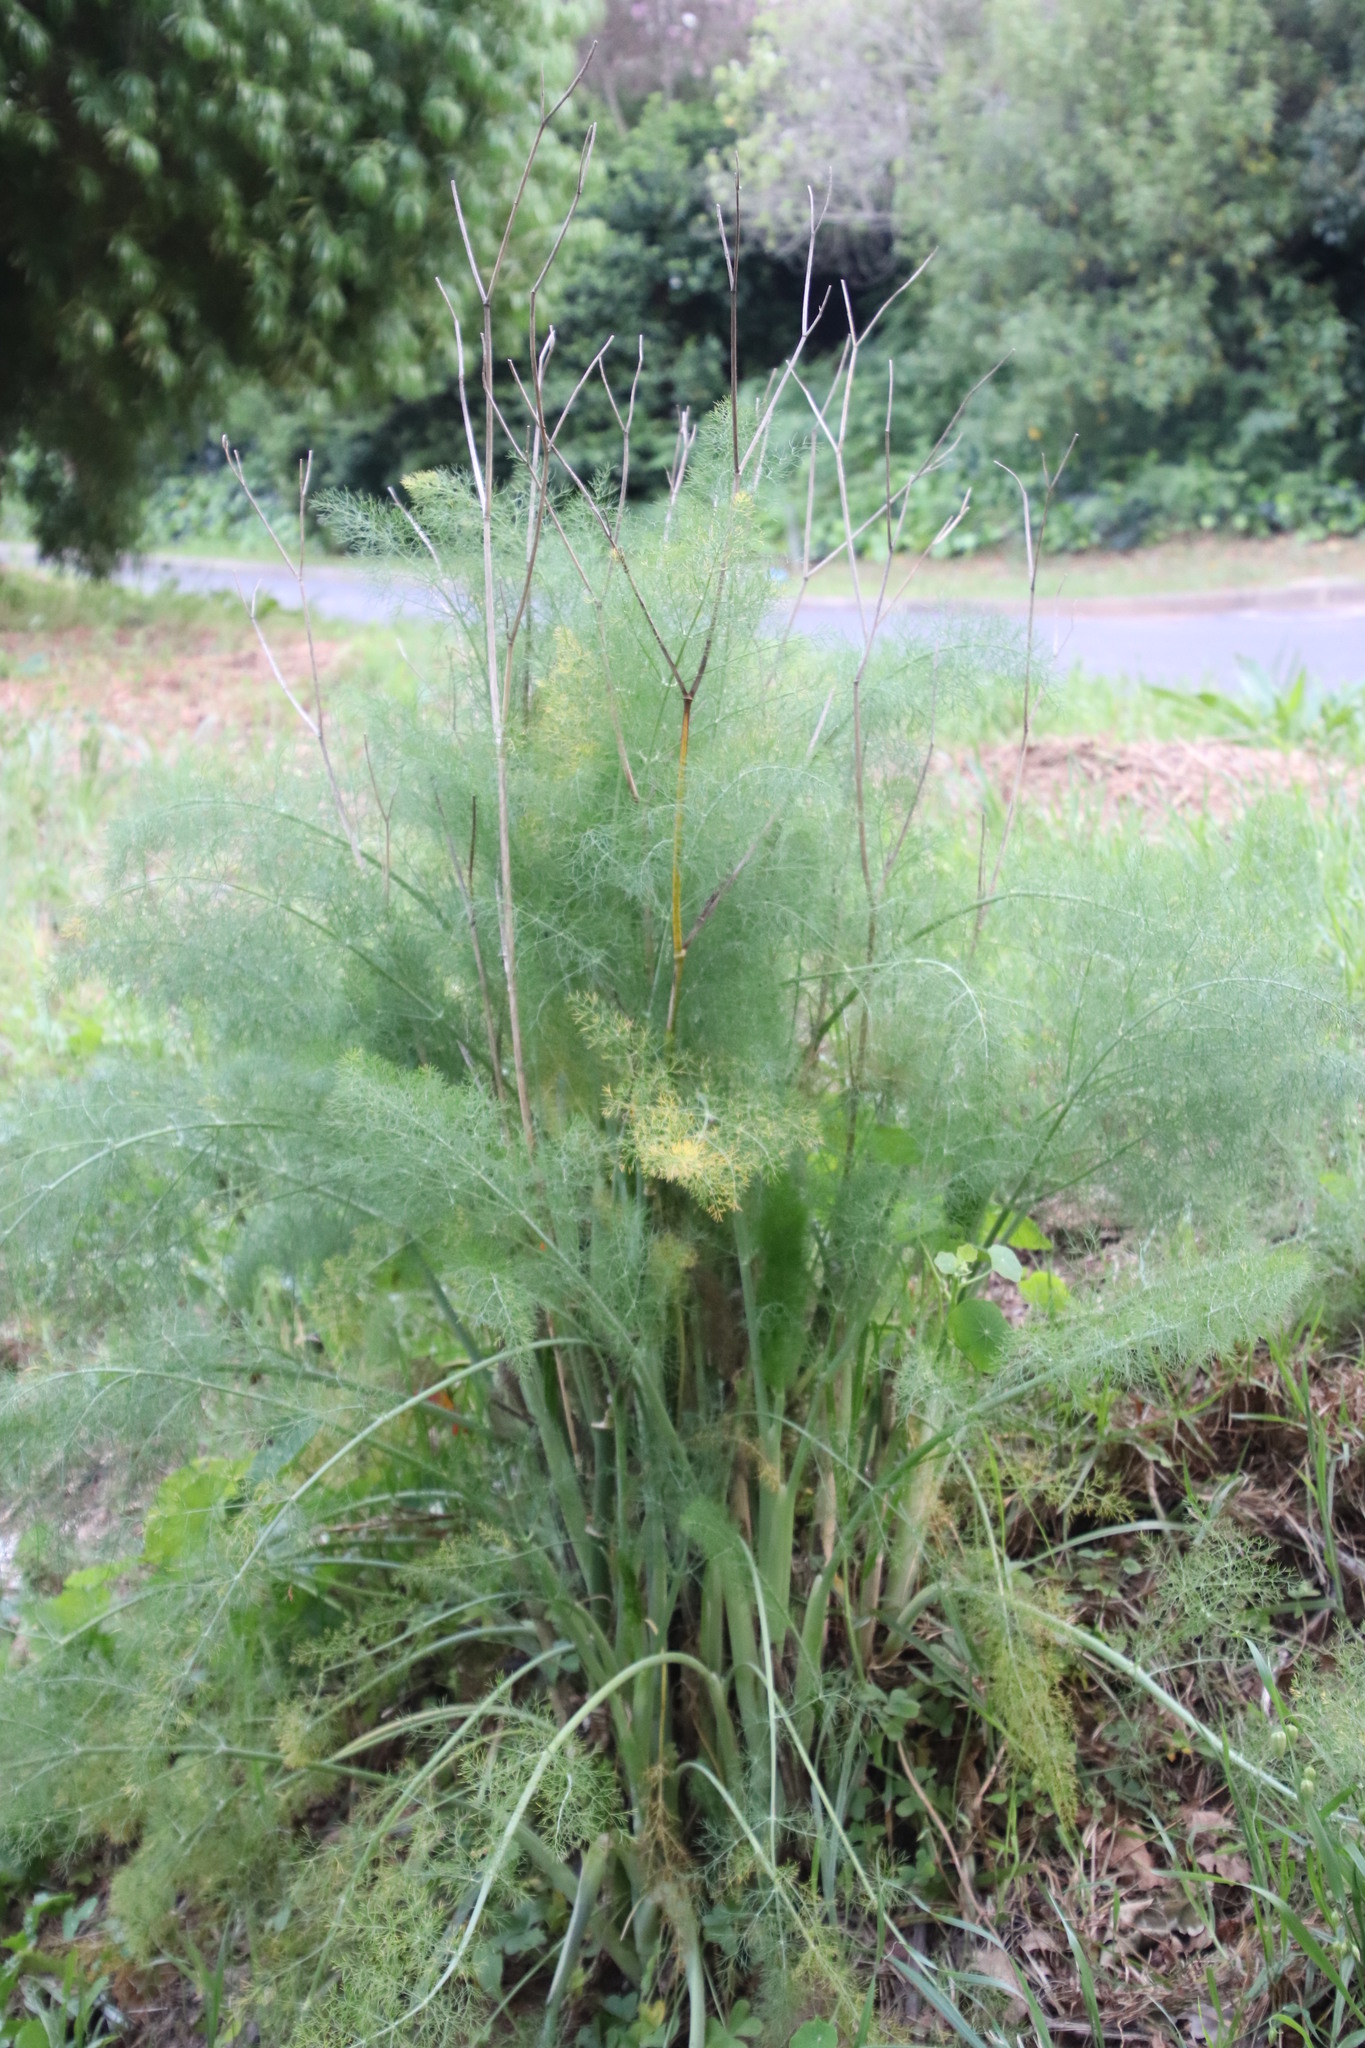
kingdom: Plantae
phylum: Tracheophyta
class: Magnoliopsida
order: Apiales
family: Apiaceae
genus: Foeniculum
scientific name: Foeniculum vulgare
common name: Fennel
